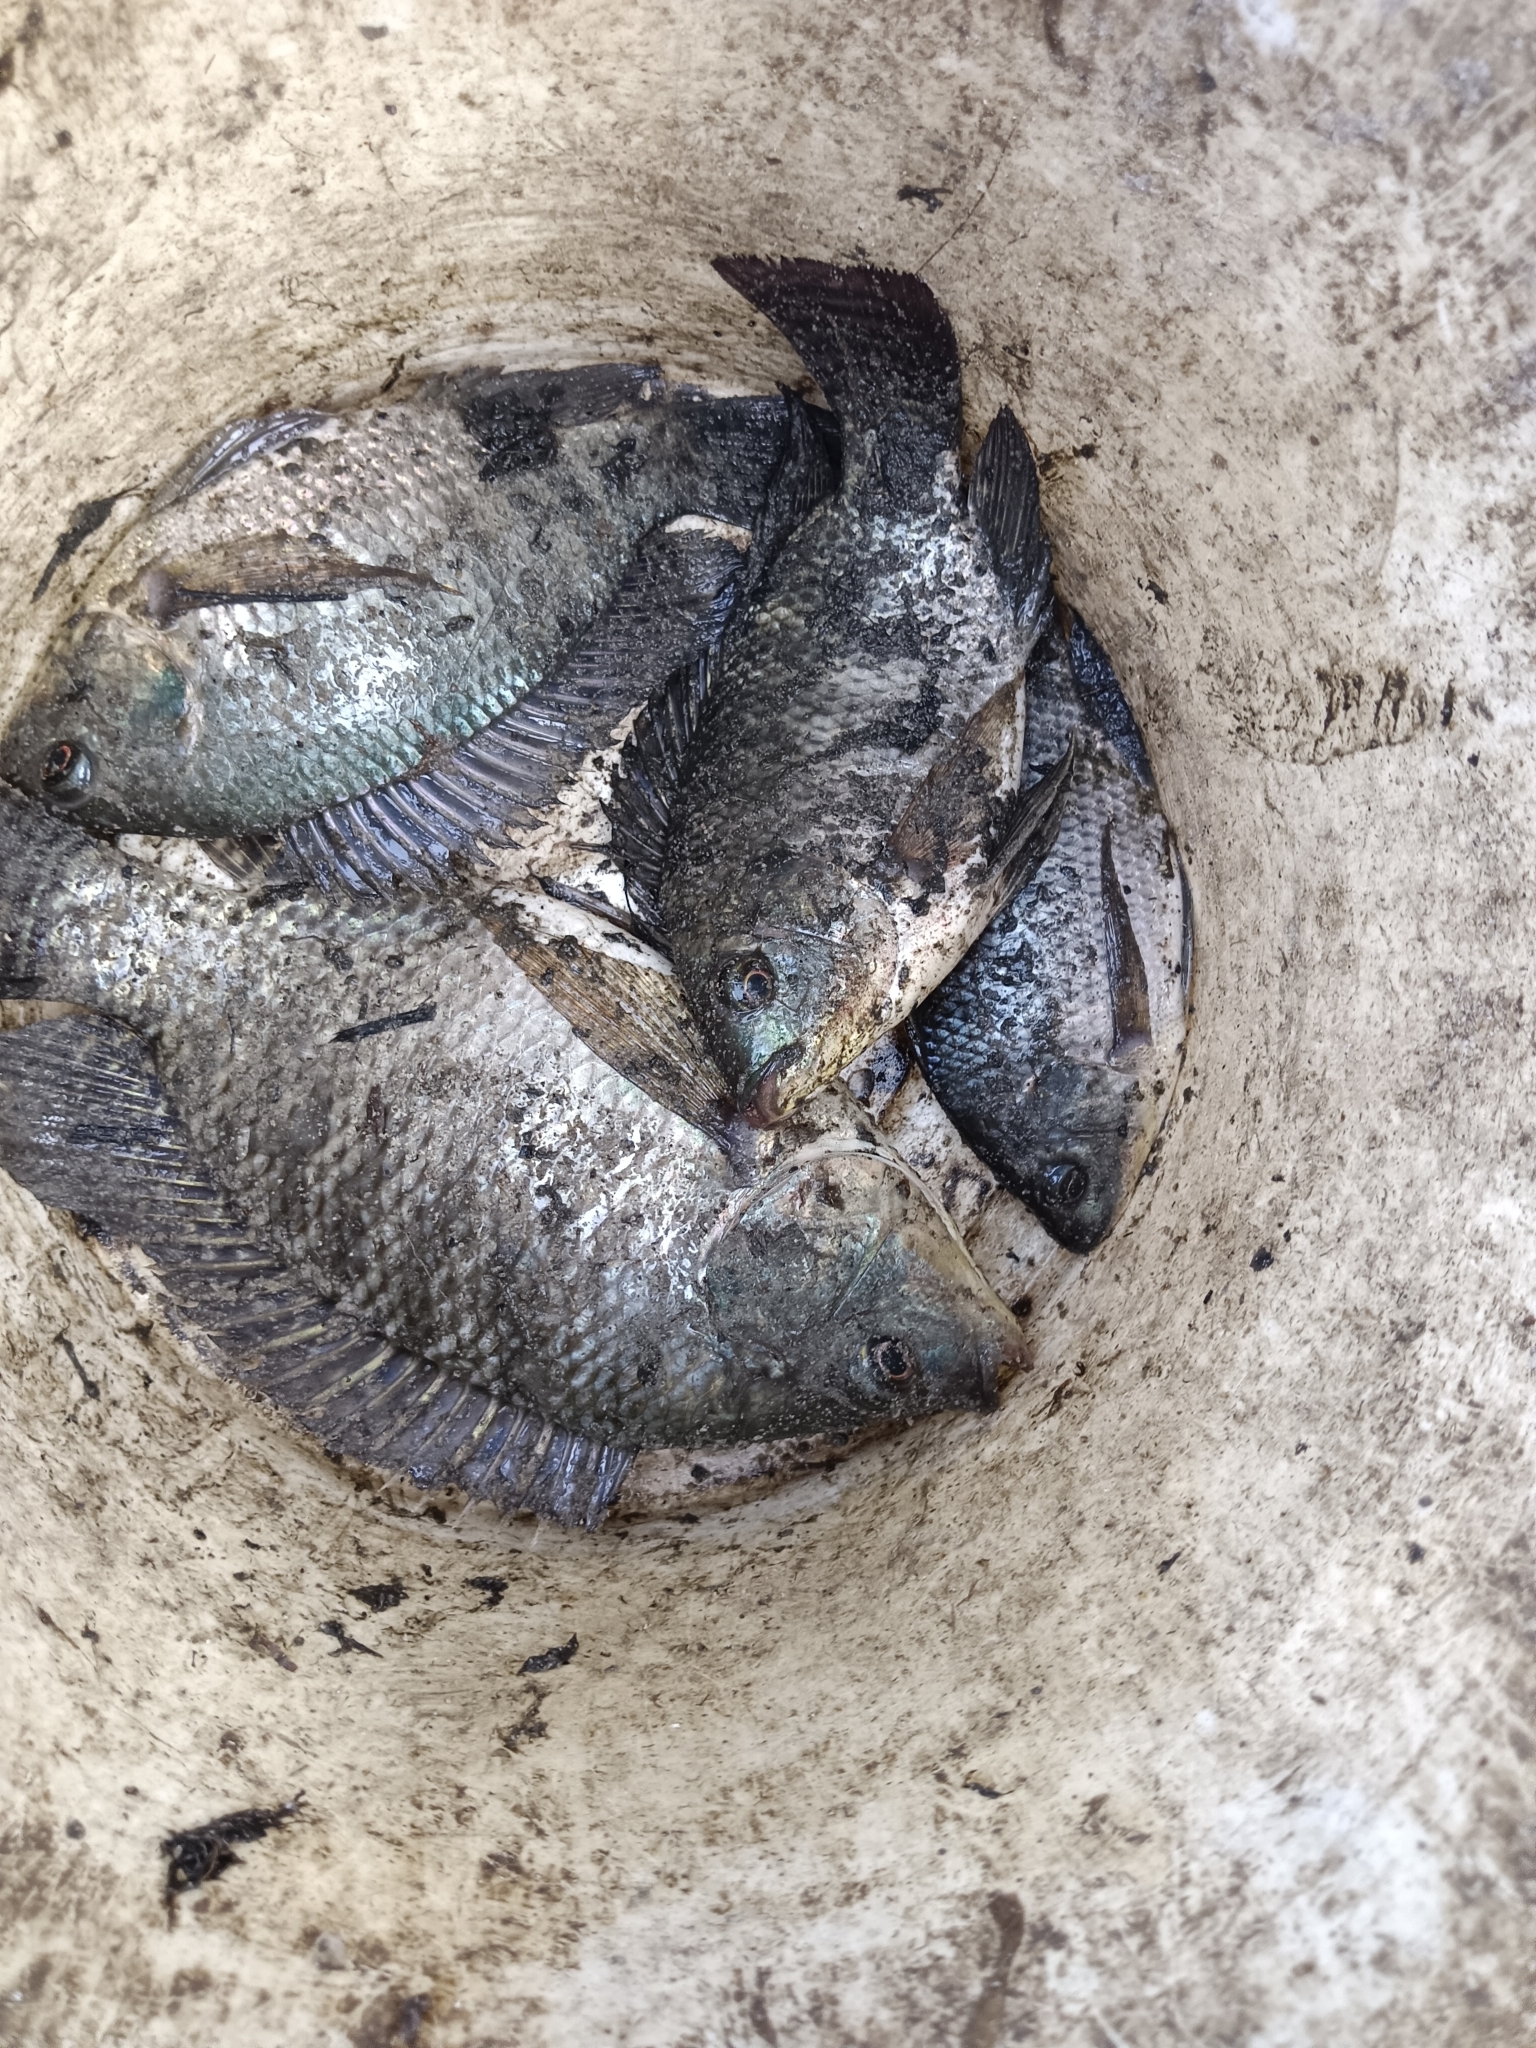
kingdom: Animalia
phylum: Chordata
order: Perciformes
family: Cichlidae
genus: Oreochromis
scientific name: Oreochromis niloticus
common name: Nile tilapia
